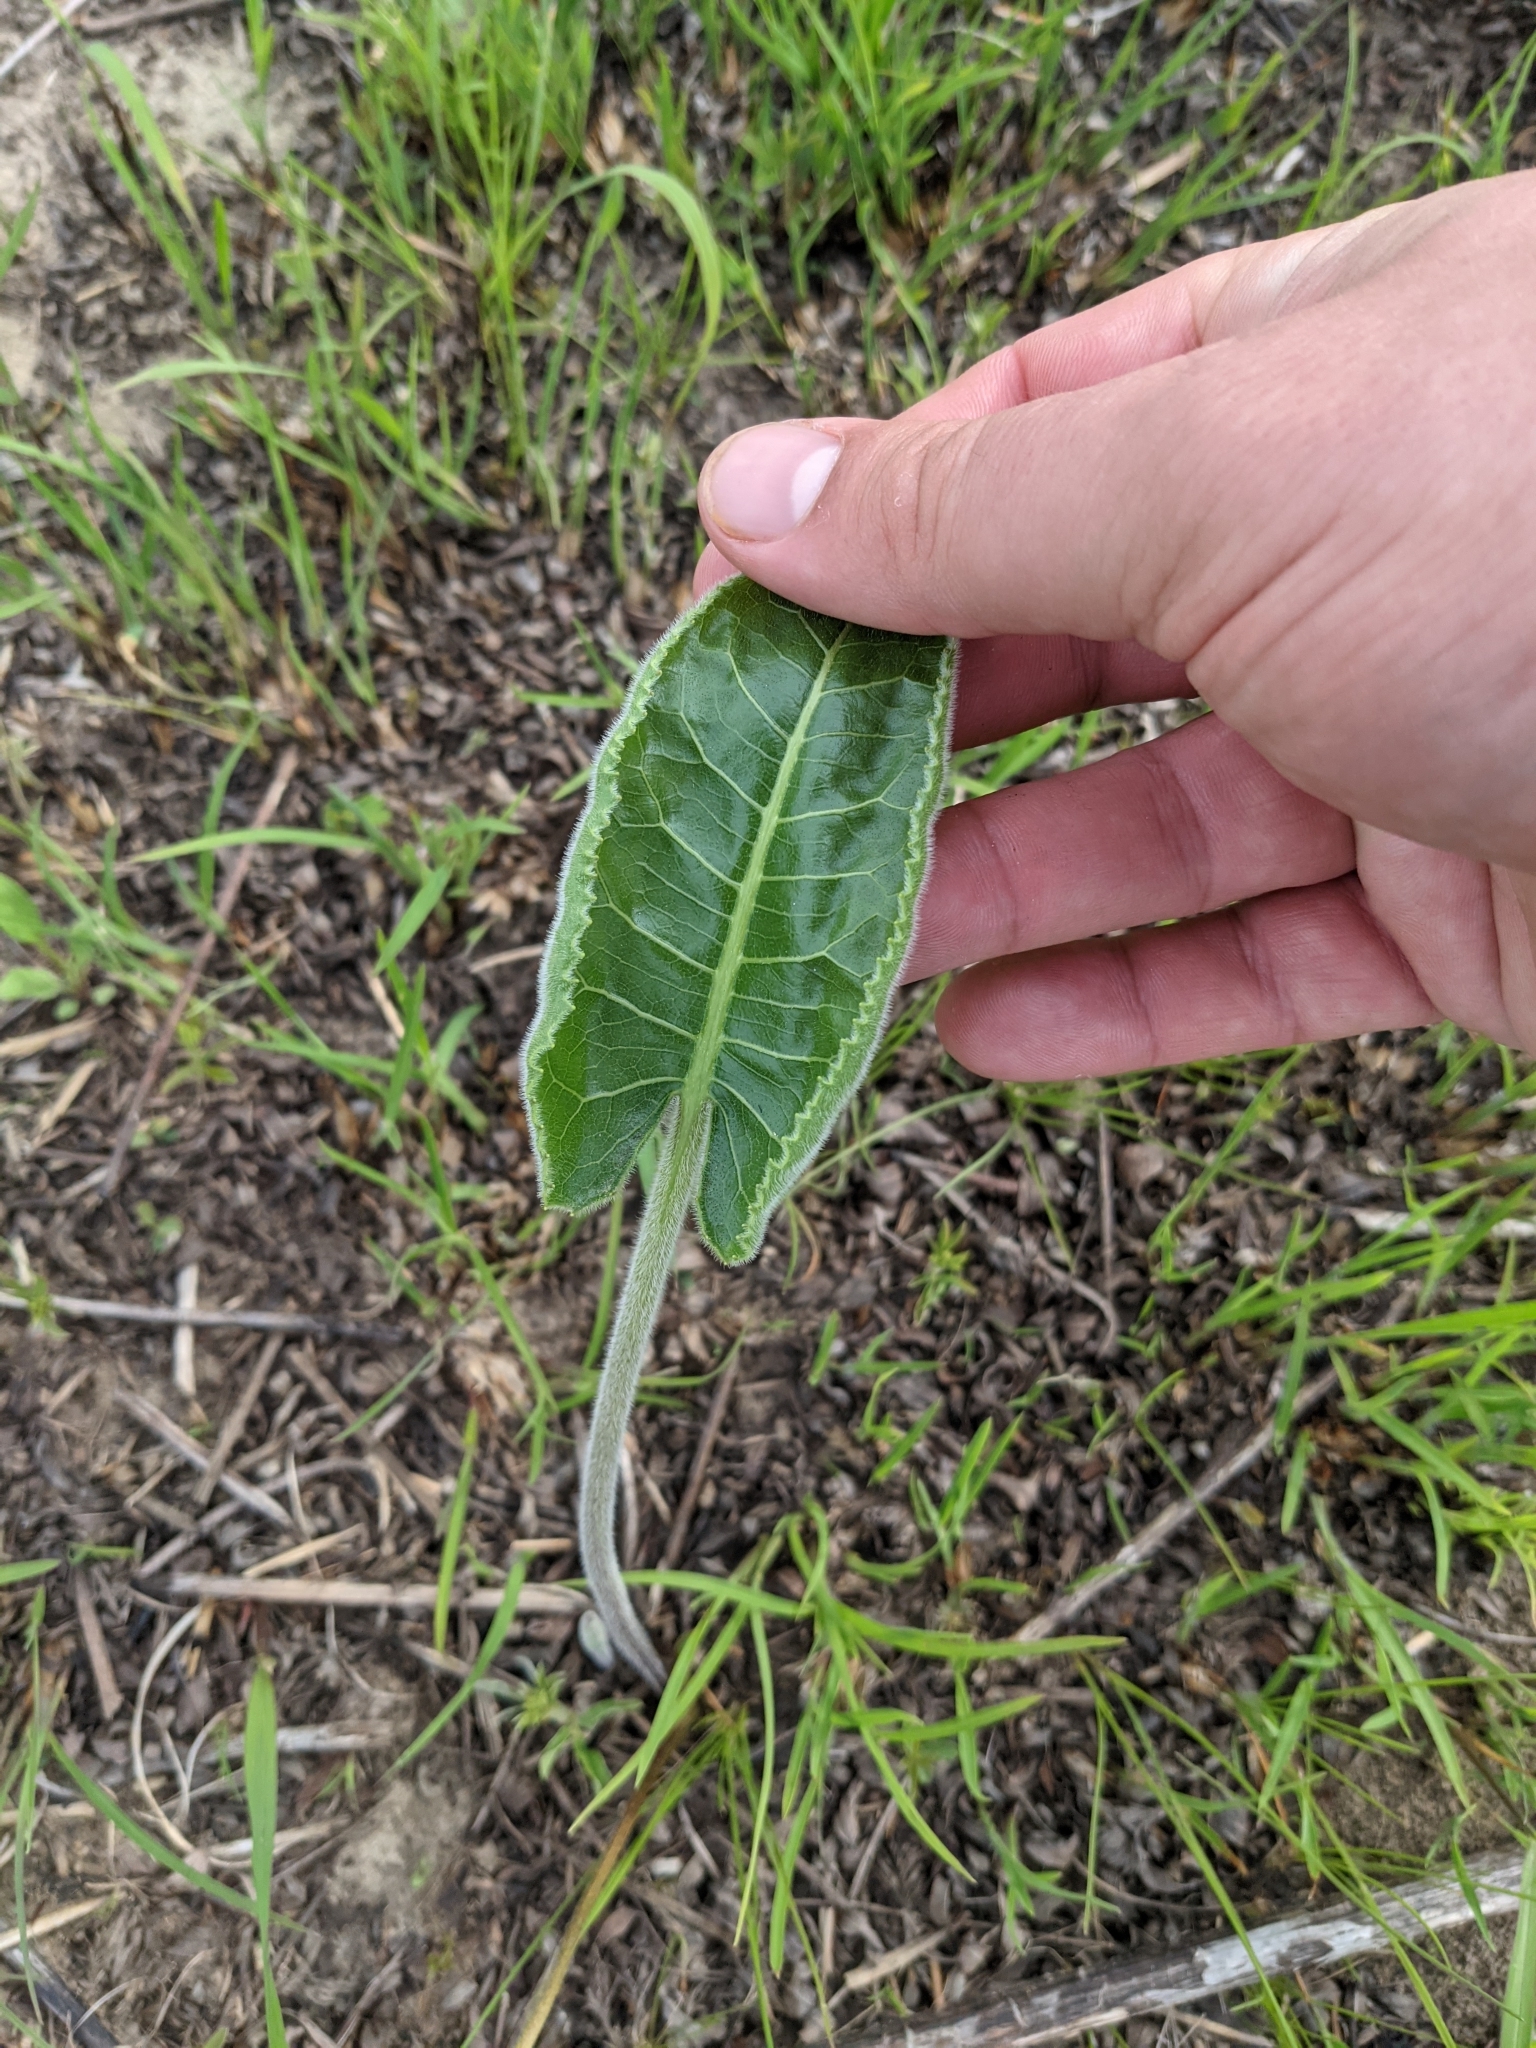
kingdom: Plantae
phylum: Tracheophyta
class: Magnoliopsida
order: Asterales
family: Asteraceae
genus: Silphium
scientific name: Silphium terebinthinaceum
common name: Basal-leaf rosinweed
